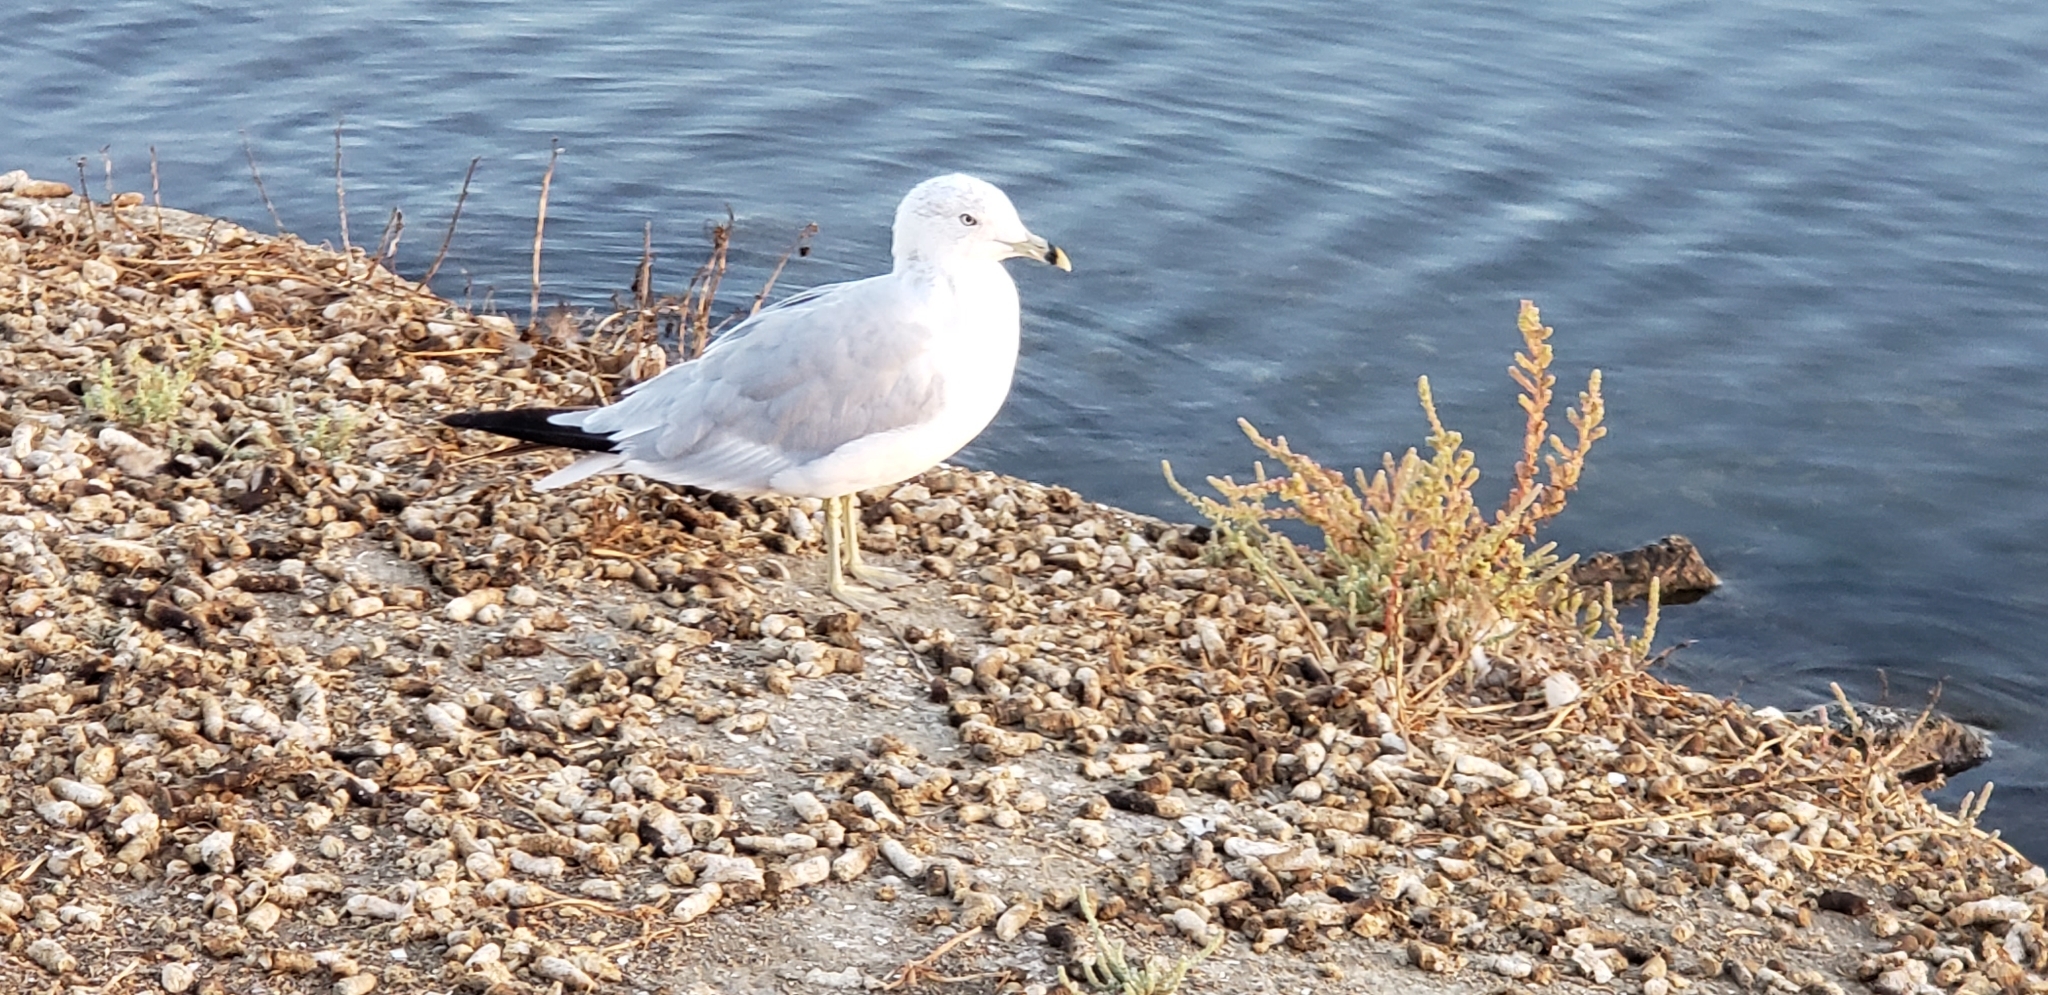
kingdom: Animalia
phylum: Chordata
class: Aves
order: Charadriiformes
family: Laridae
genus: Larus
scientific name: Larus delawarensis
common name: Ring-billed gull
